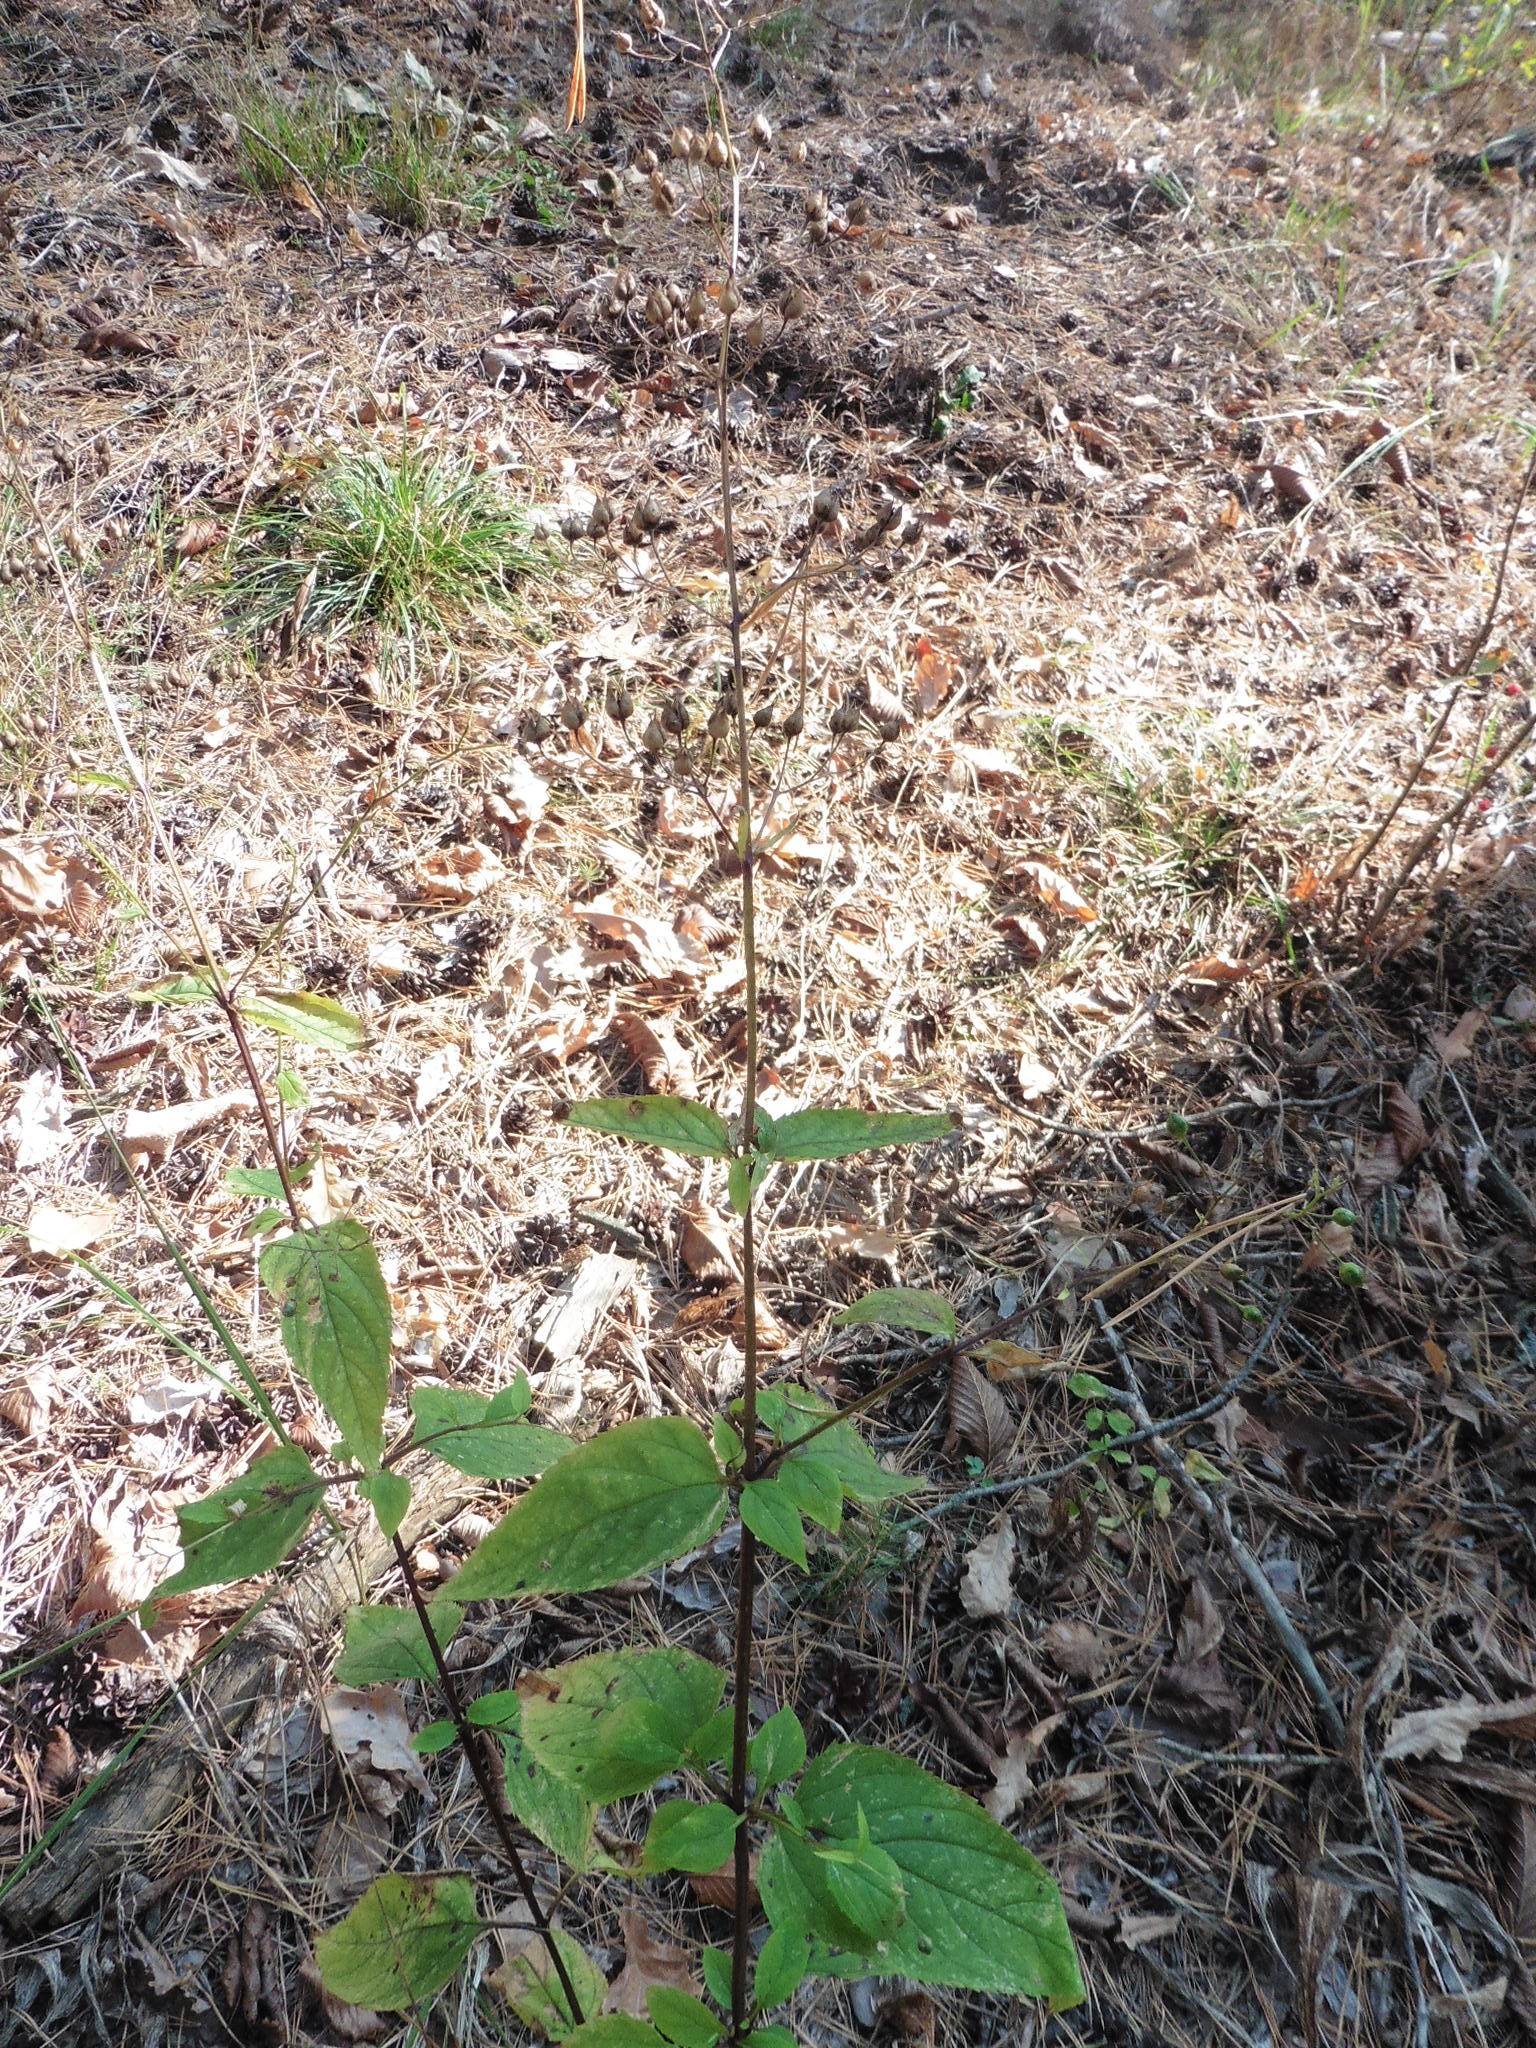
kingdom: Plantae
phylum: Tracheophyta
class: Magnoliopsida
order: Lamiales
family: Scrophulariaceae
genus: Scrophularia
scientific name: Scrophularia nodosa
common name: Common figwort
